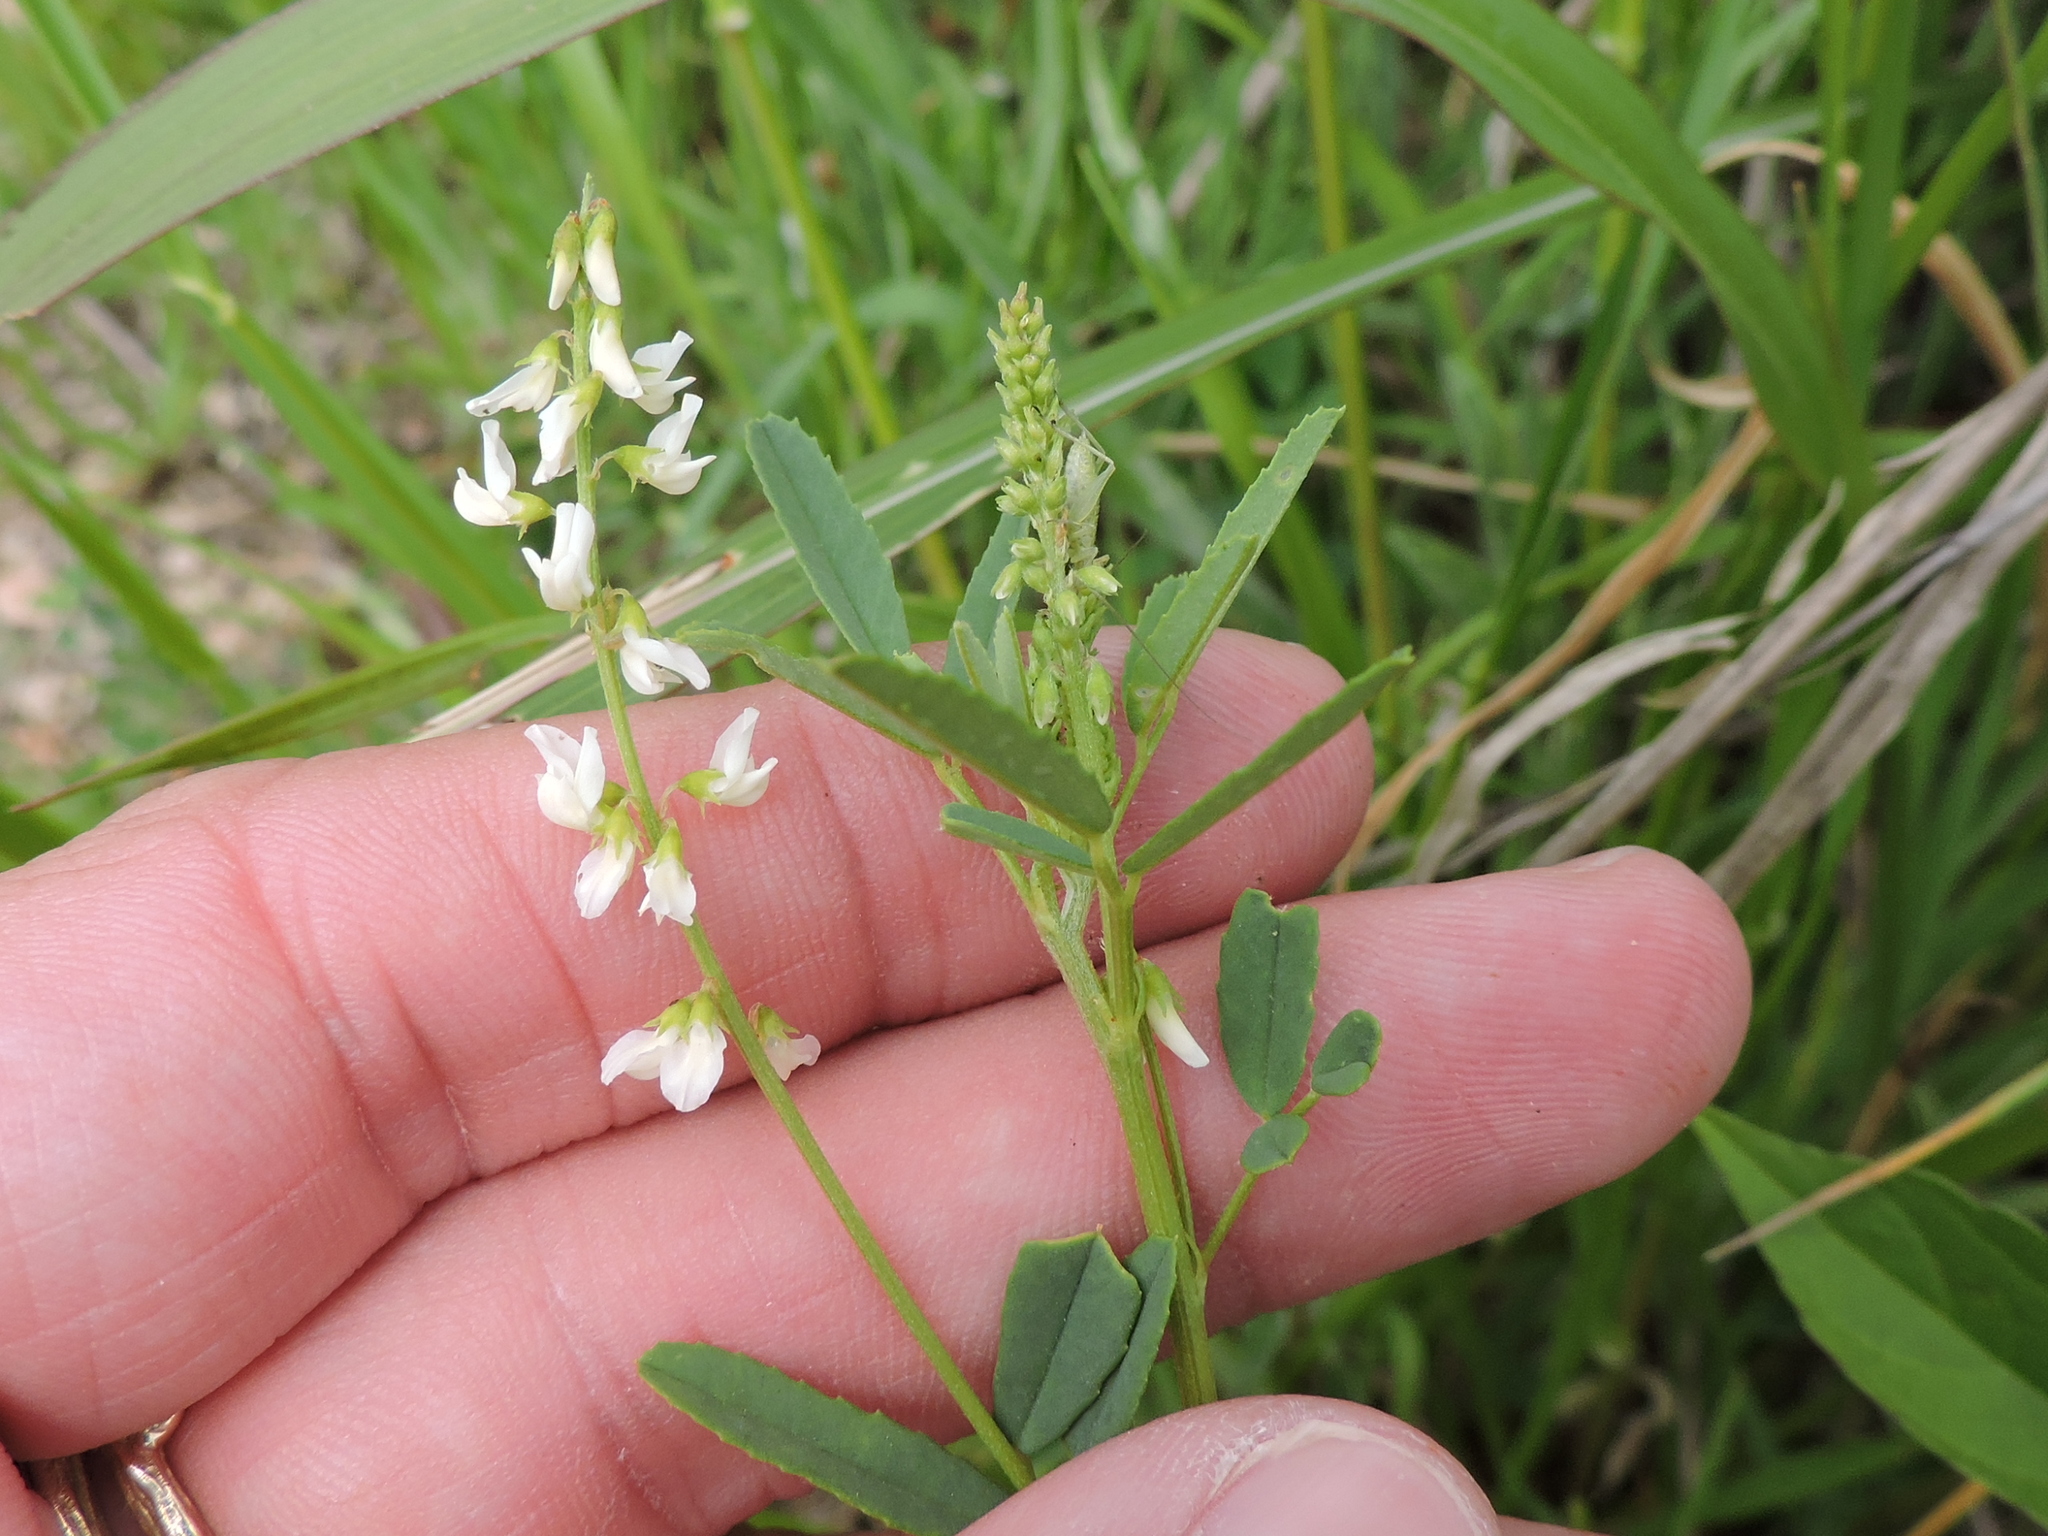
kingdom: Plantae
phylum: Tracheophyta
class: Magnoliopsida
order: Fabales
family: Fabaceae
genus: Melilotus
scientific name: Melilotus albus
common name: White melilot
